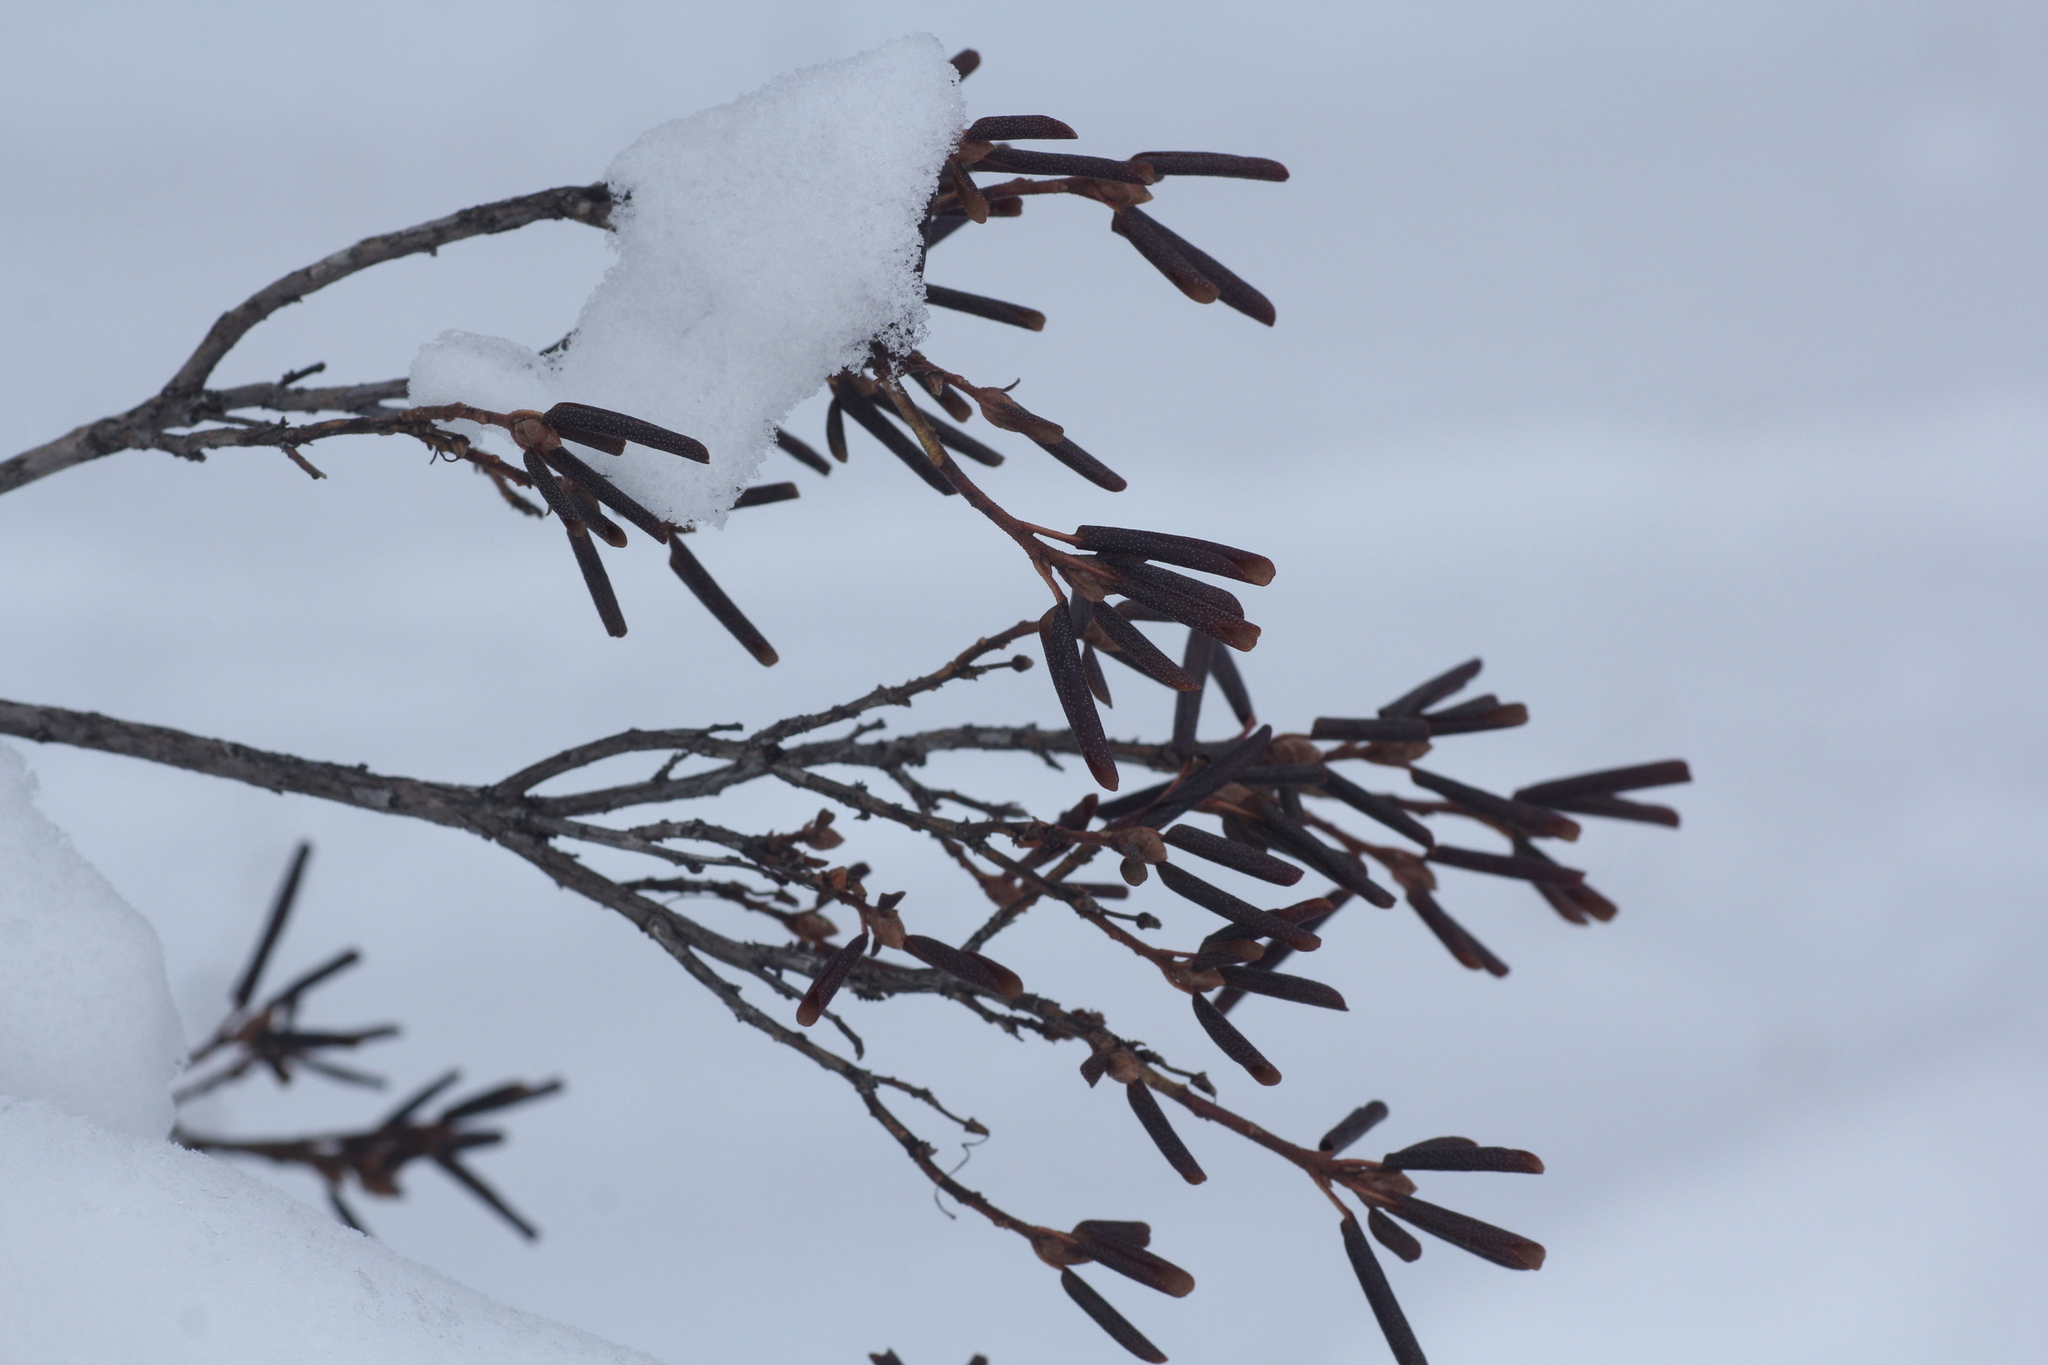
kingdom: Plantae
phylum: Tracheophyta
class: Magnoliopsida
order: Ericales
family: Ericaceae
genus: Rhododendron
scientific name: Rhododendron dauricum
